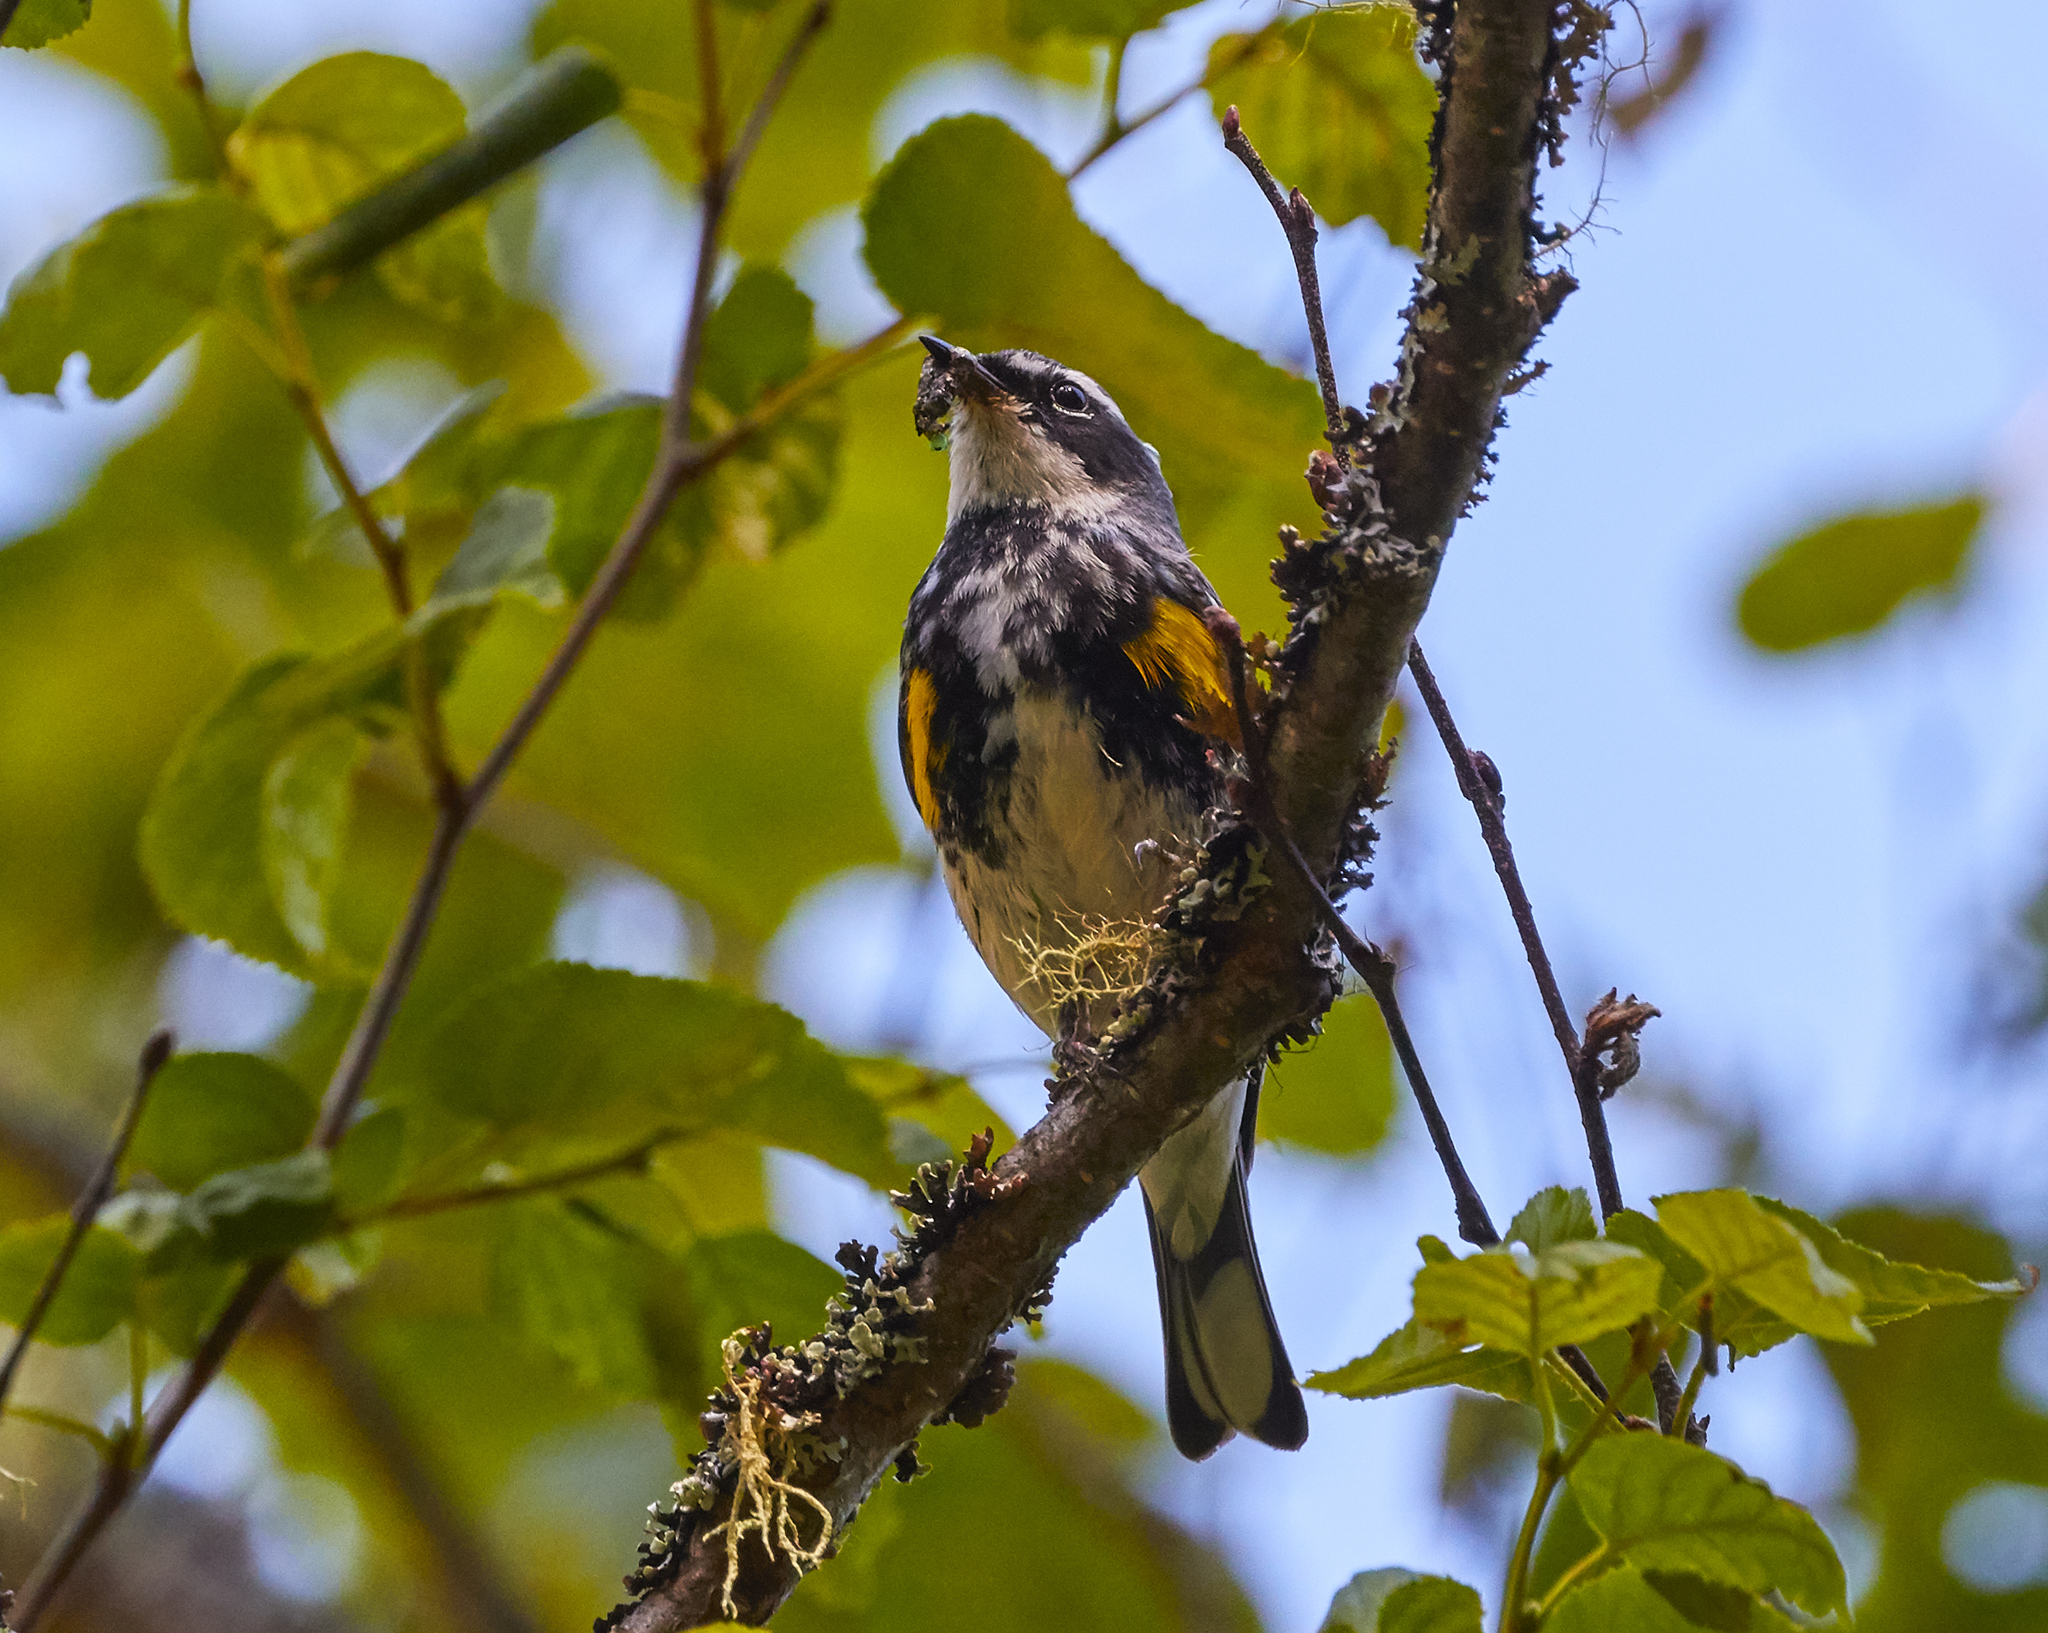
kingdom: Animalia
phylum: Chordata
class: Aves
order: Passeriformes
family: Parulidae
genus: Setophaga
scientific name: Setophaga coronata
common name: Myrtle warbler
